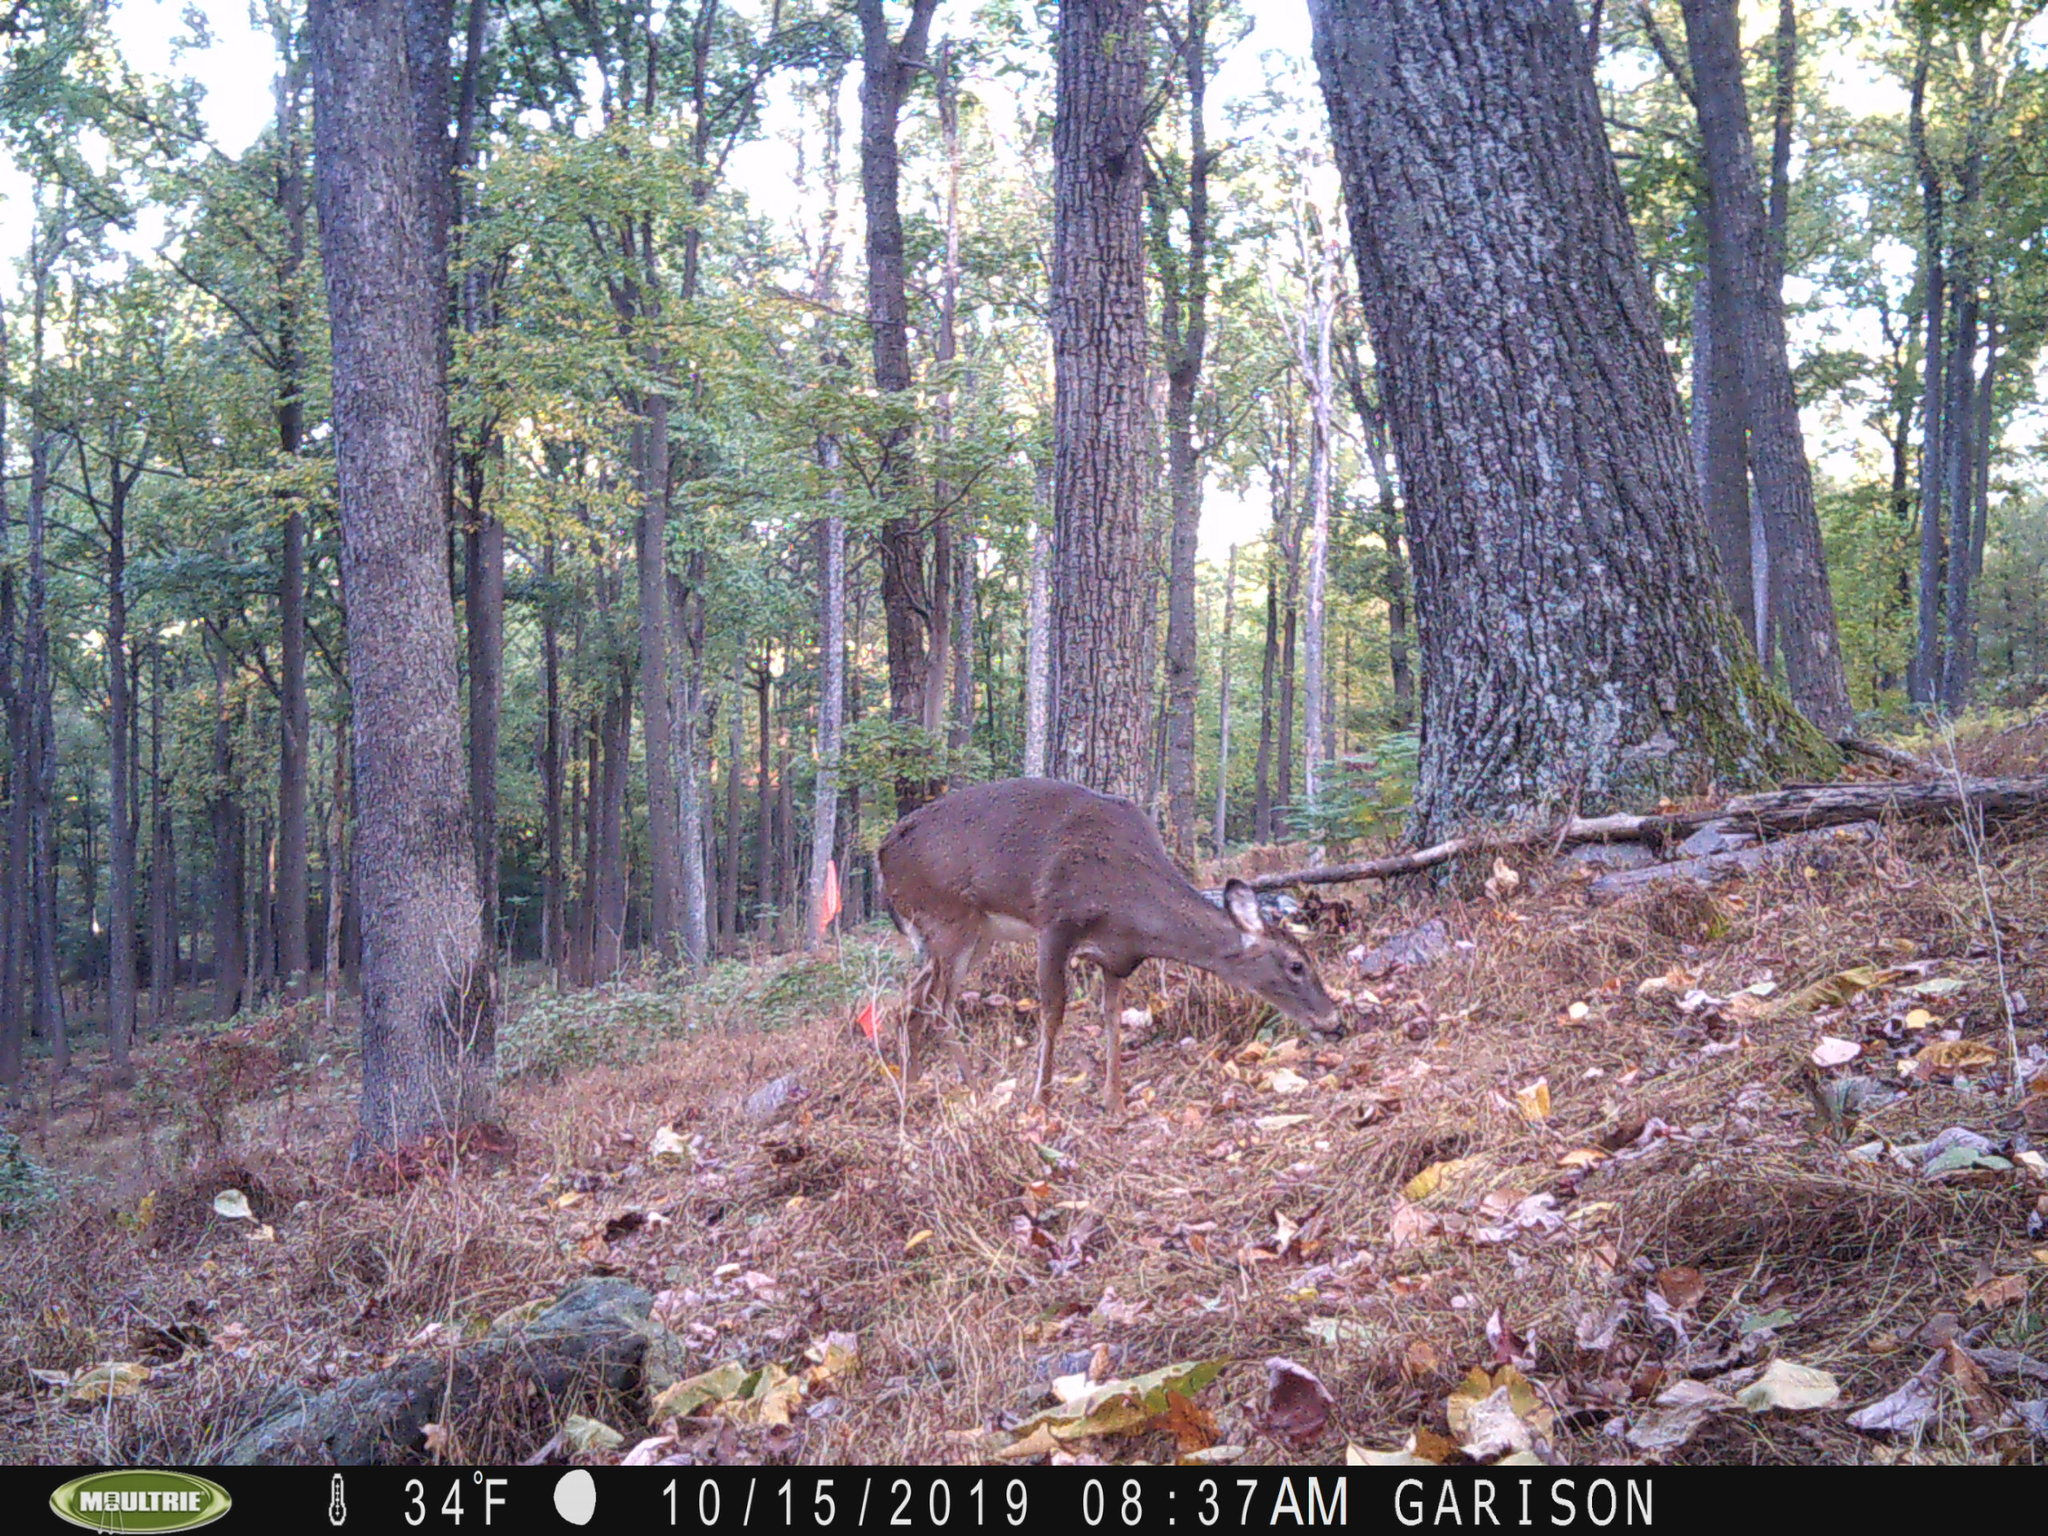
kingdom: Animalia
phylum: Chordata
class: Mammalia
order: Artiodactyla
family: Cervidae
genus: Odocoileus
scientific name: Odocoileus virginianus
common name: White-tailed deer
